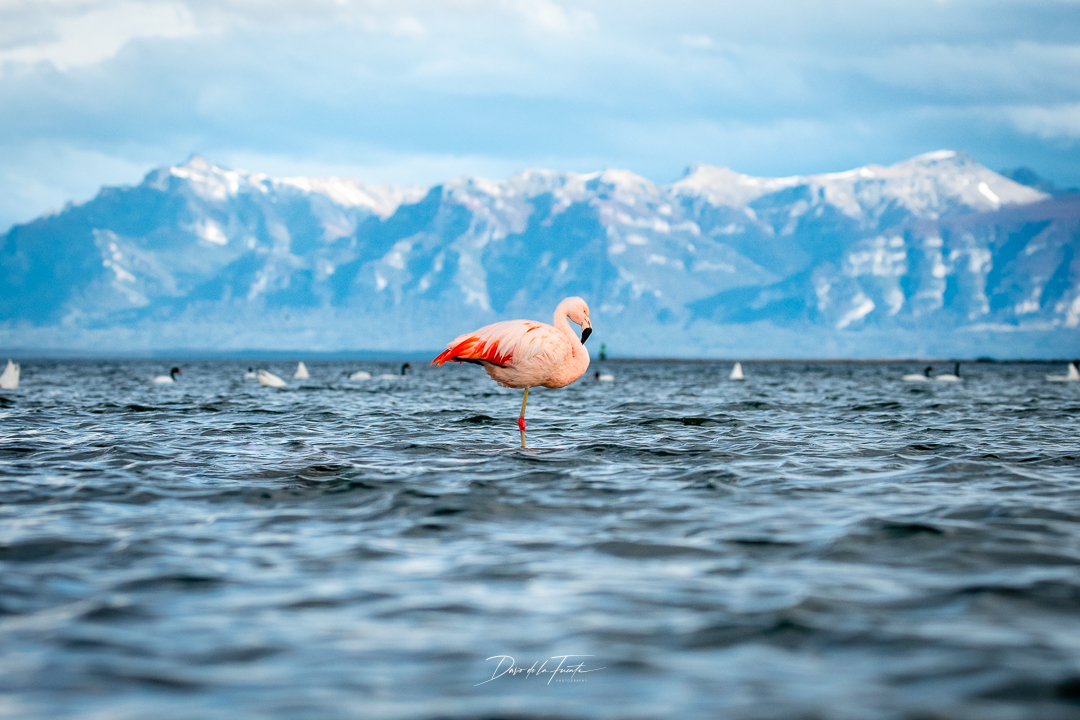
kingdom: Animalia
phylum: Chordata
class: Aves
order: Phoenicopteriformes
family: Phoenicopteridae
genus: Phoenicopterus
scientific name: Phoenicopterus chilensis
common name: Chilean flamingo
